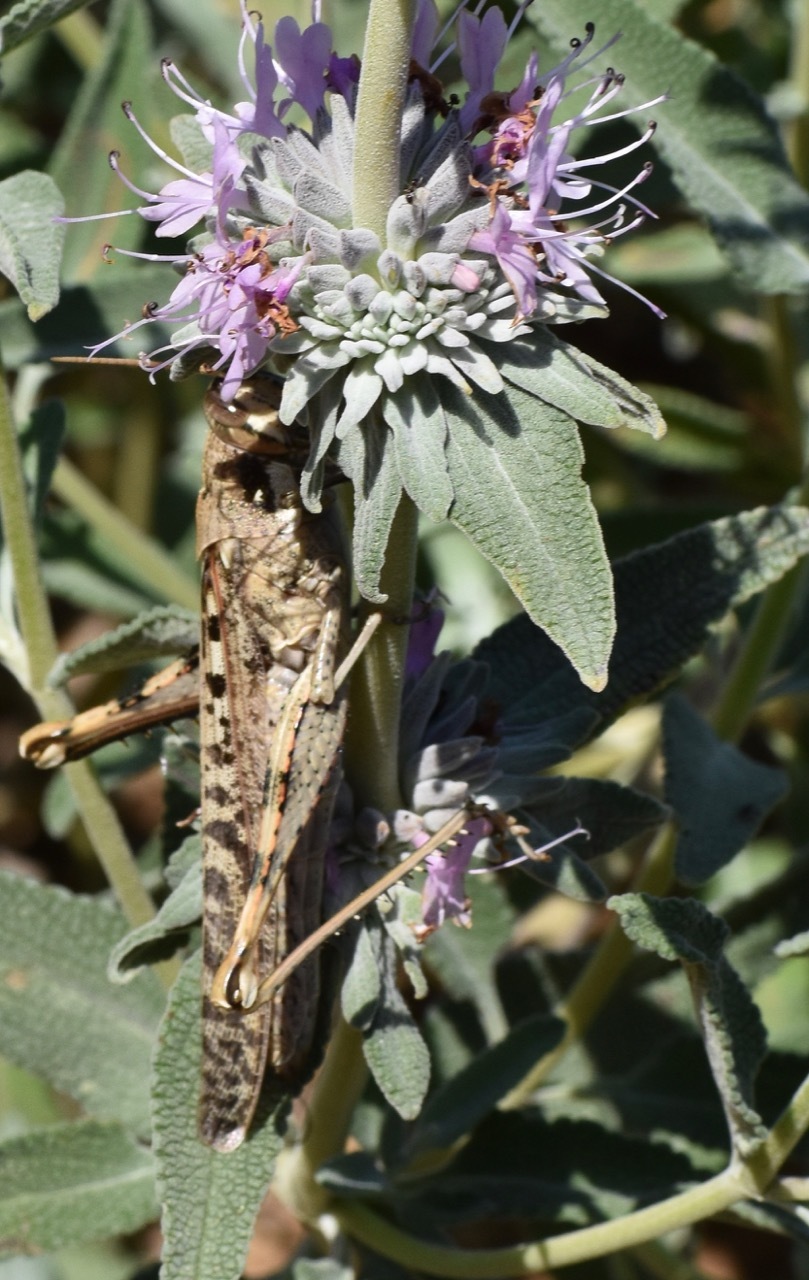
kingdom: Animalia
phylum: Arthropoda
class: Insecta
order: Orthoptera
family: Acrididae
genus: Schistocerca
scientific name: Schistocerca nitens
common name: Vagrant grasshopper
